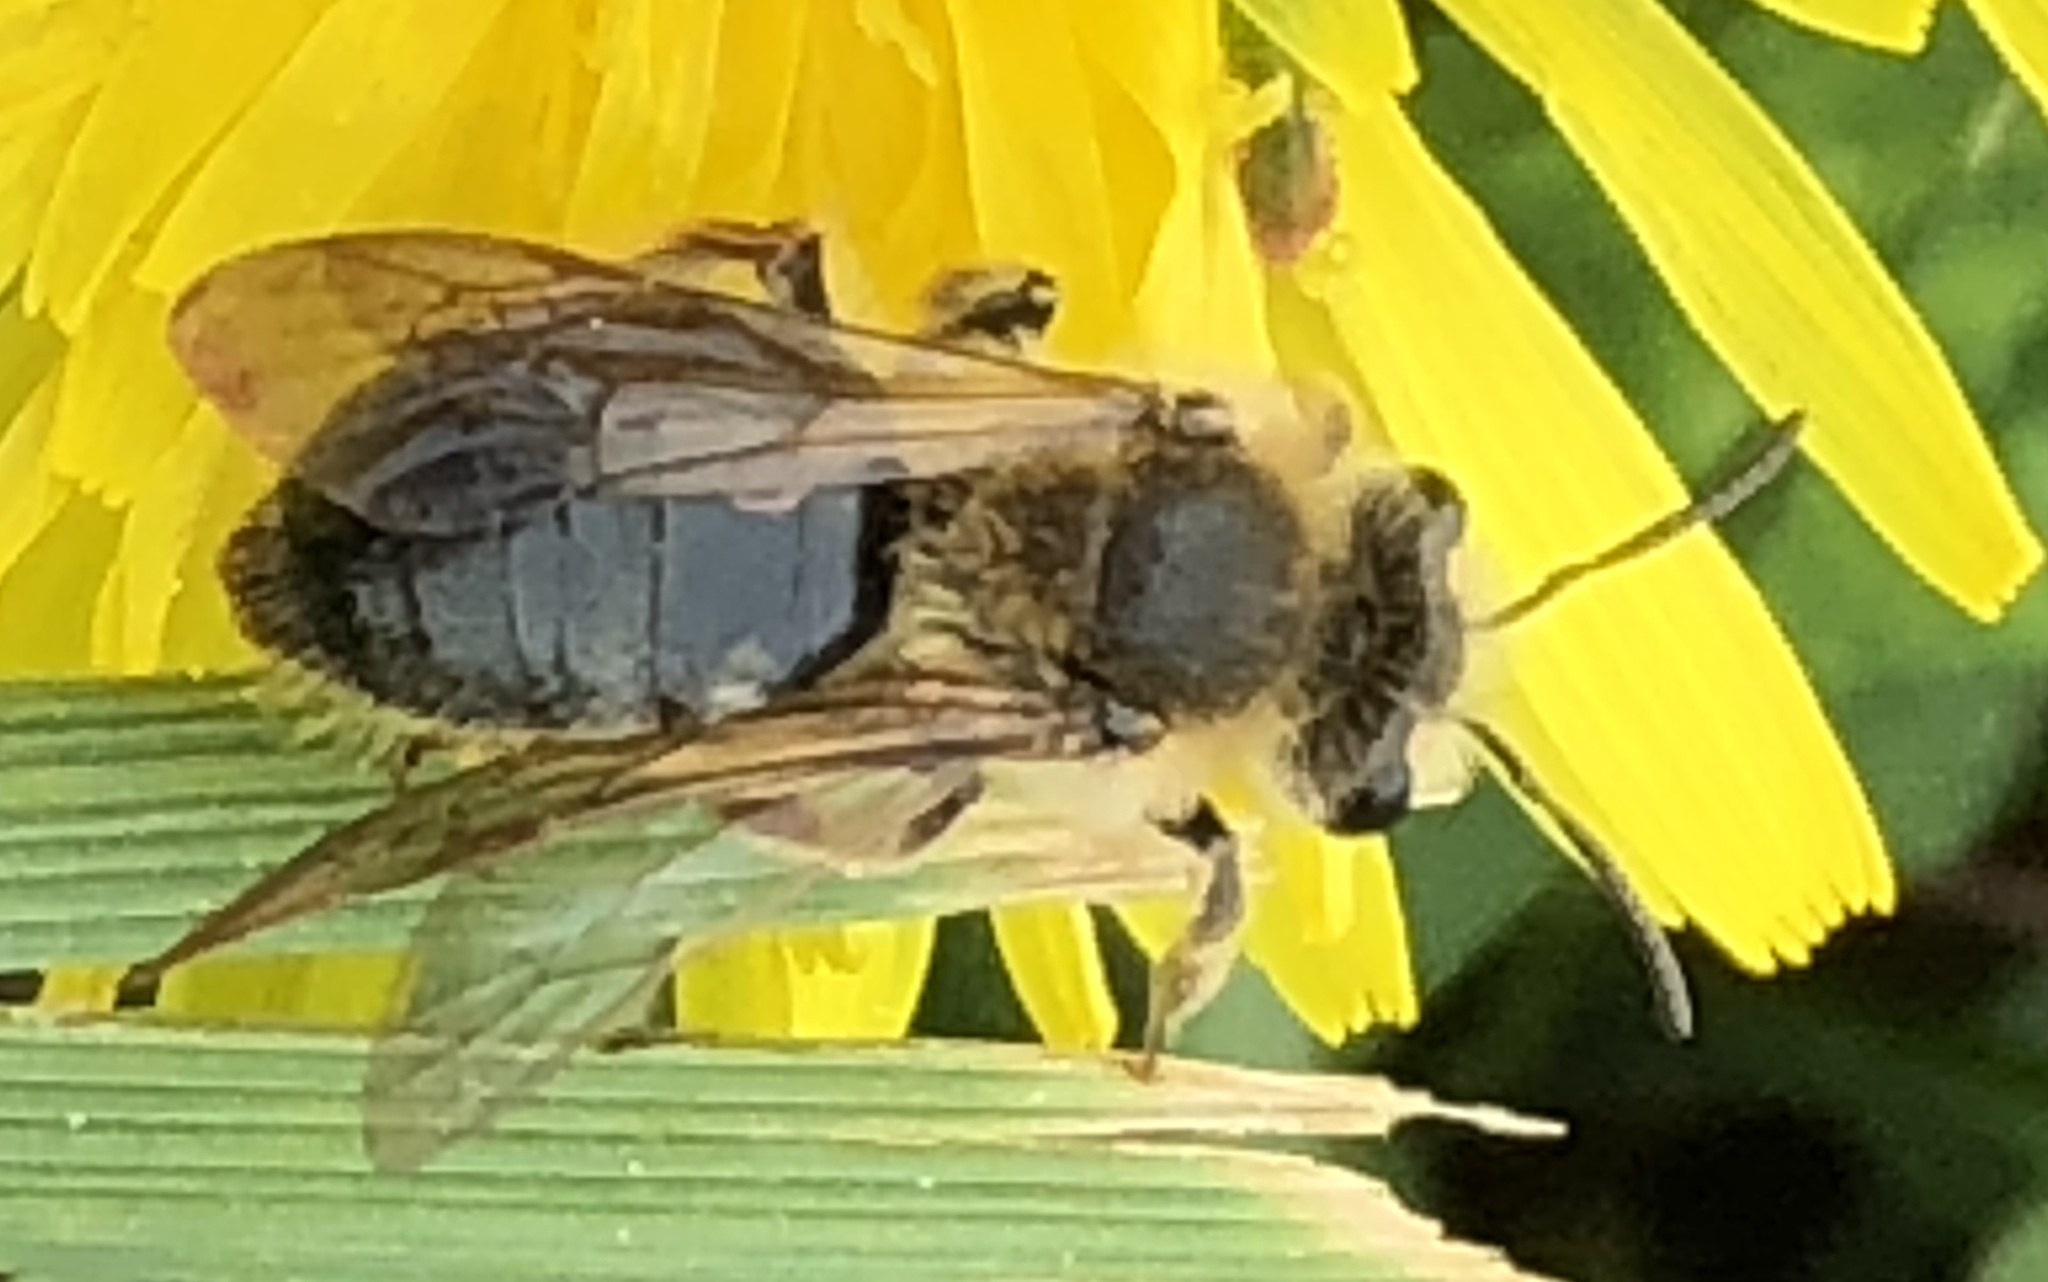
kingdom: Animalia
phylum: Arthropoda
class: Insecta
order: Hymenoptera
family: Andrenidae
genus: Andrena
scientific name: Andrena barbara
